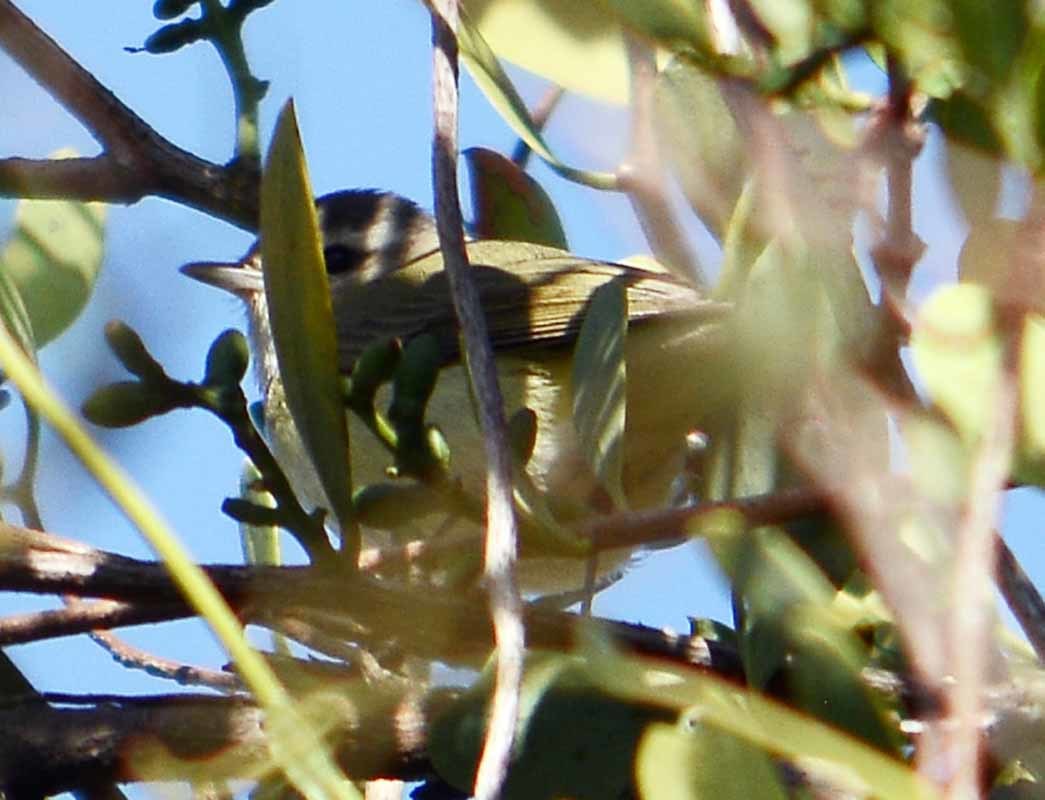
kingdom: Animalia
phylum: Chordata
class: Aves
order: Passeriformes
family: Vireonidae
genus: Vireo
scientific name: Vireo philadelphicus
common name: Philadelphia vireo
